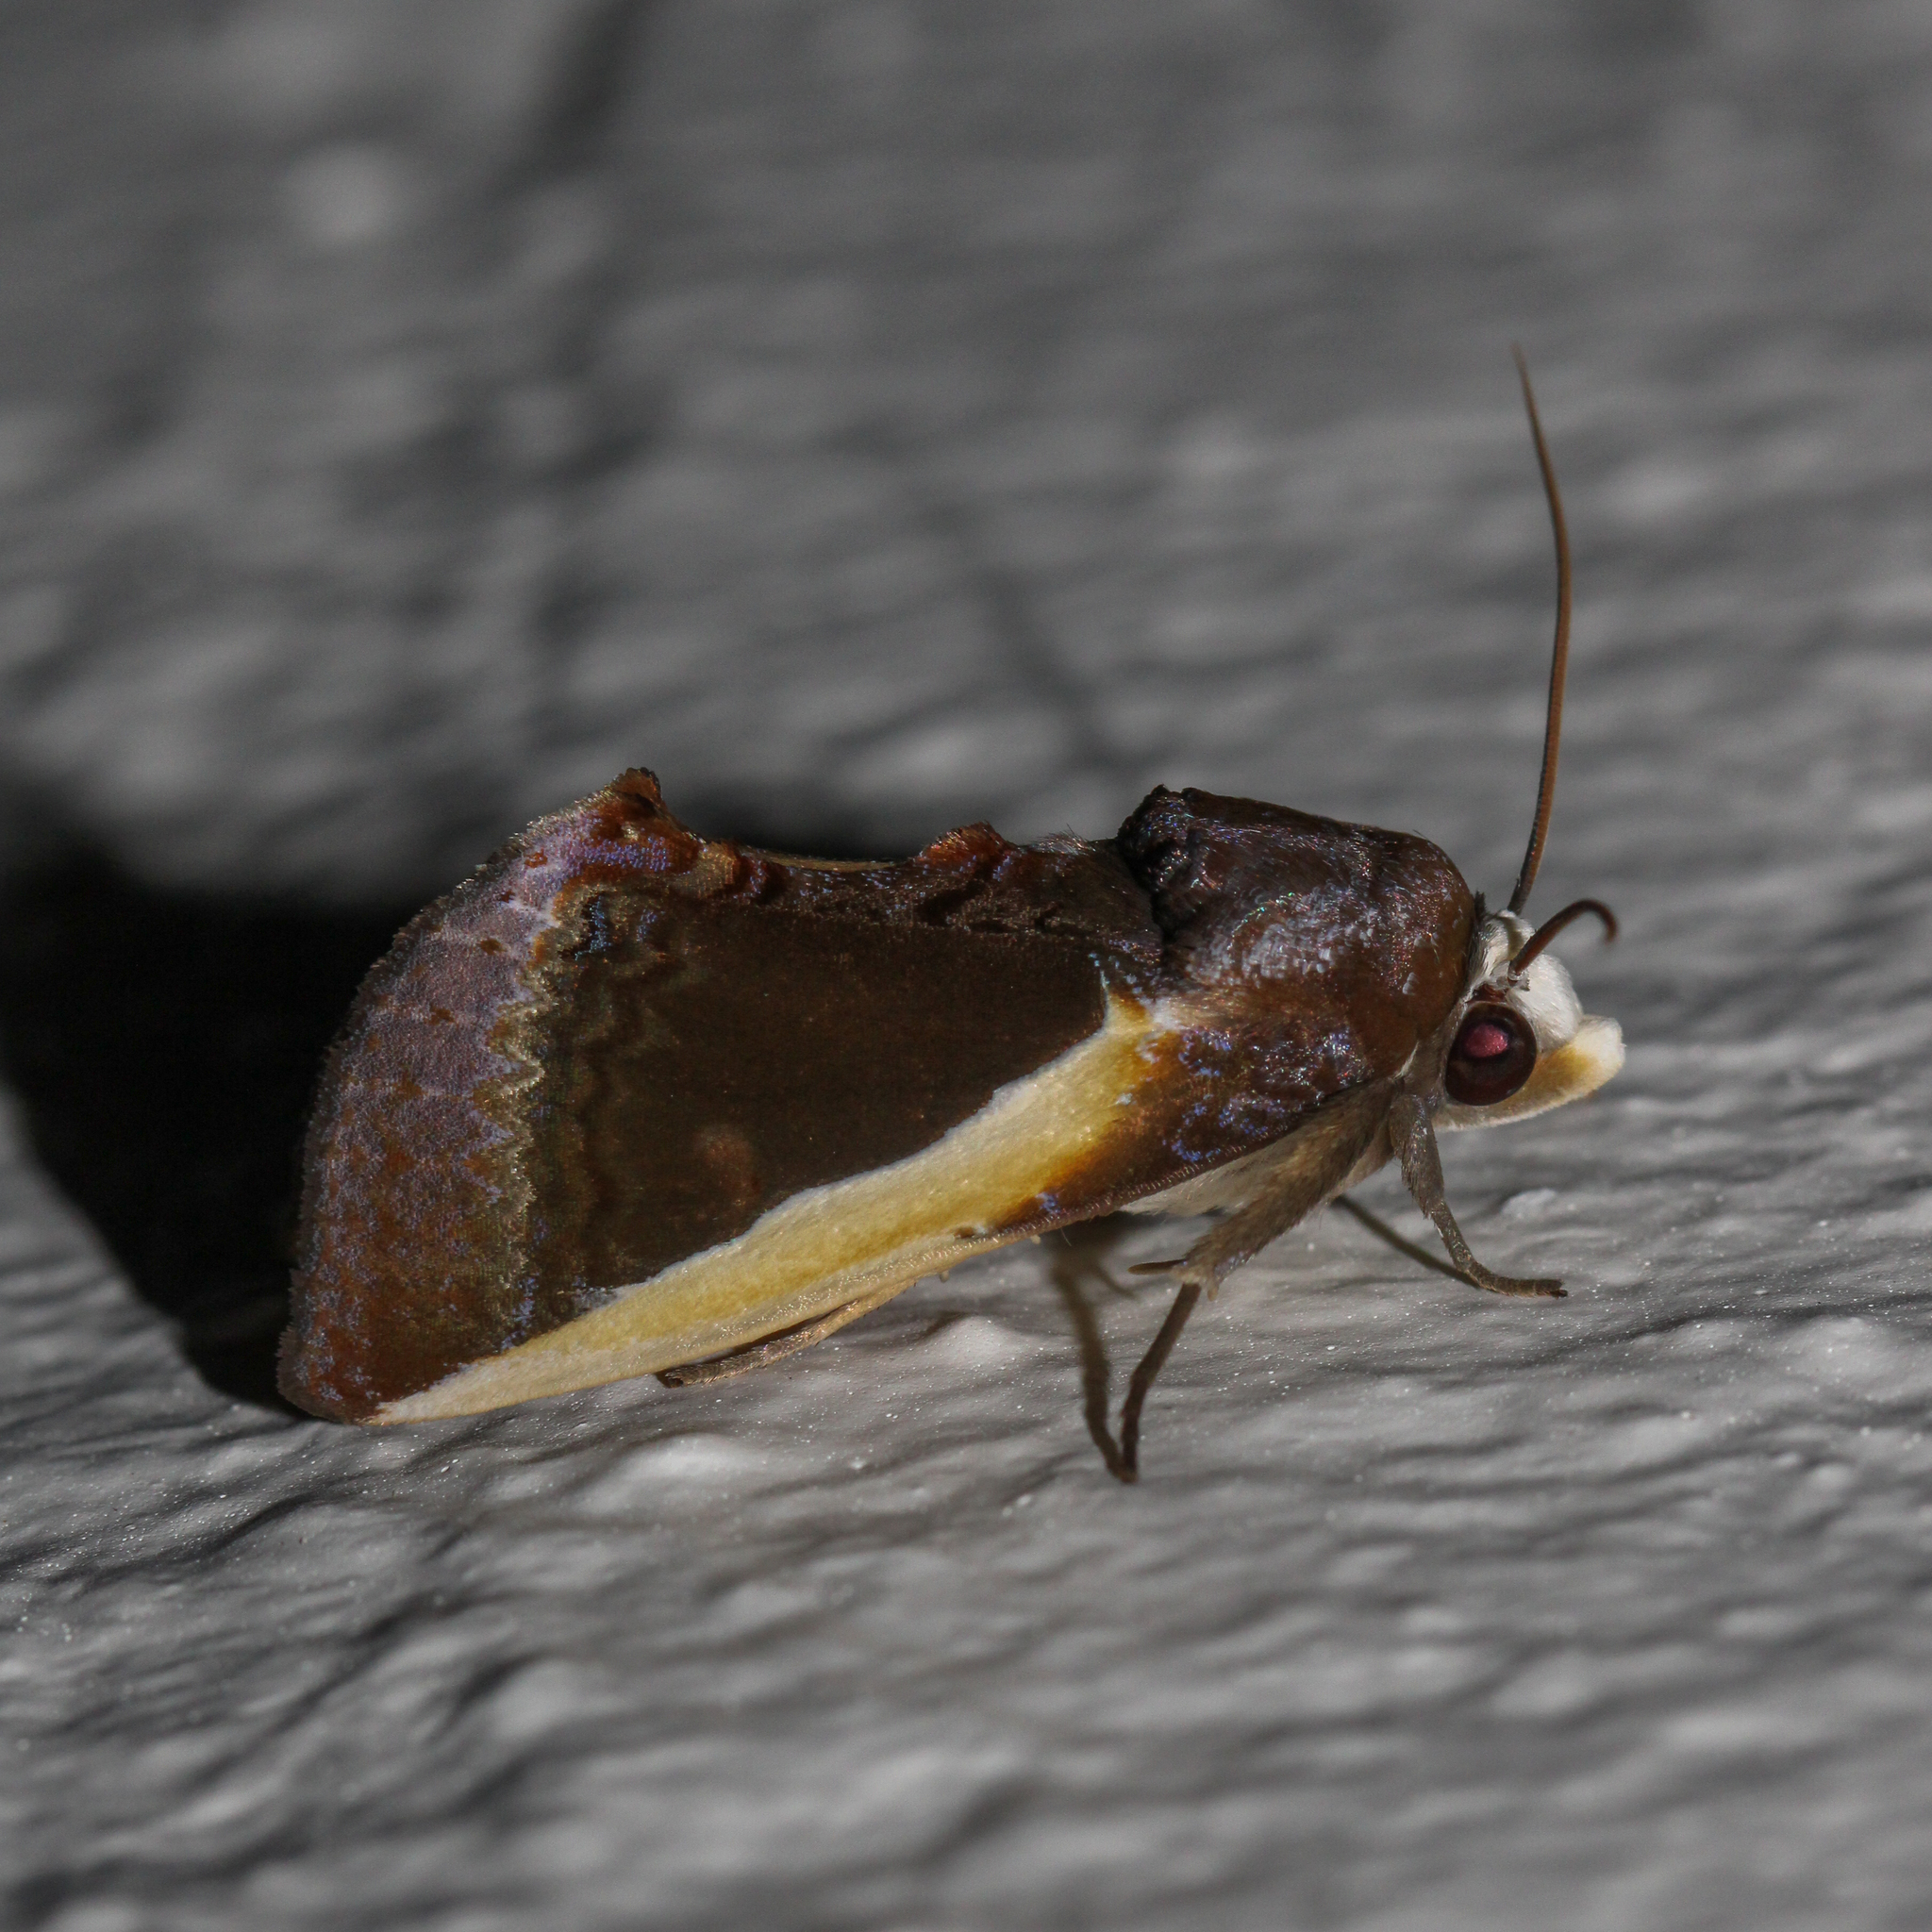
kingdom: Animalia
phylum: Arthropoda
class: Insecta
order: Lepidoptera
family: Erebidae
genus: Gonodonta
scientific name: Gonodonta nutrix
